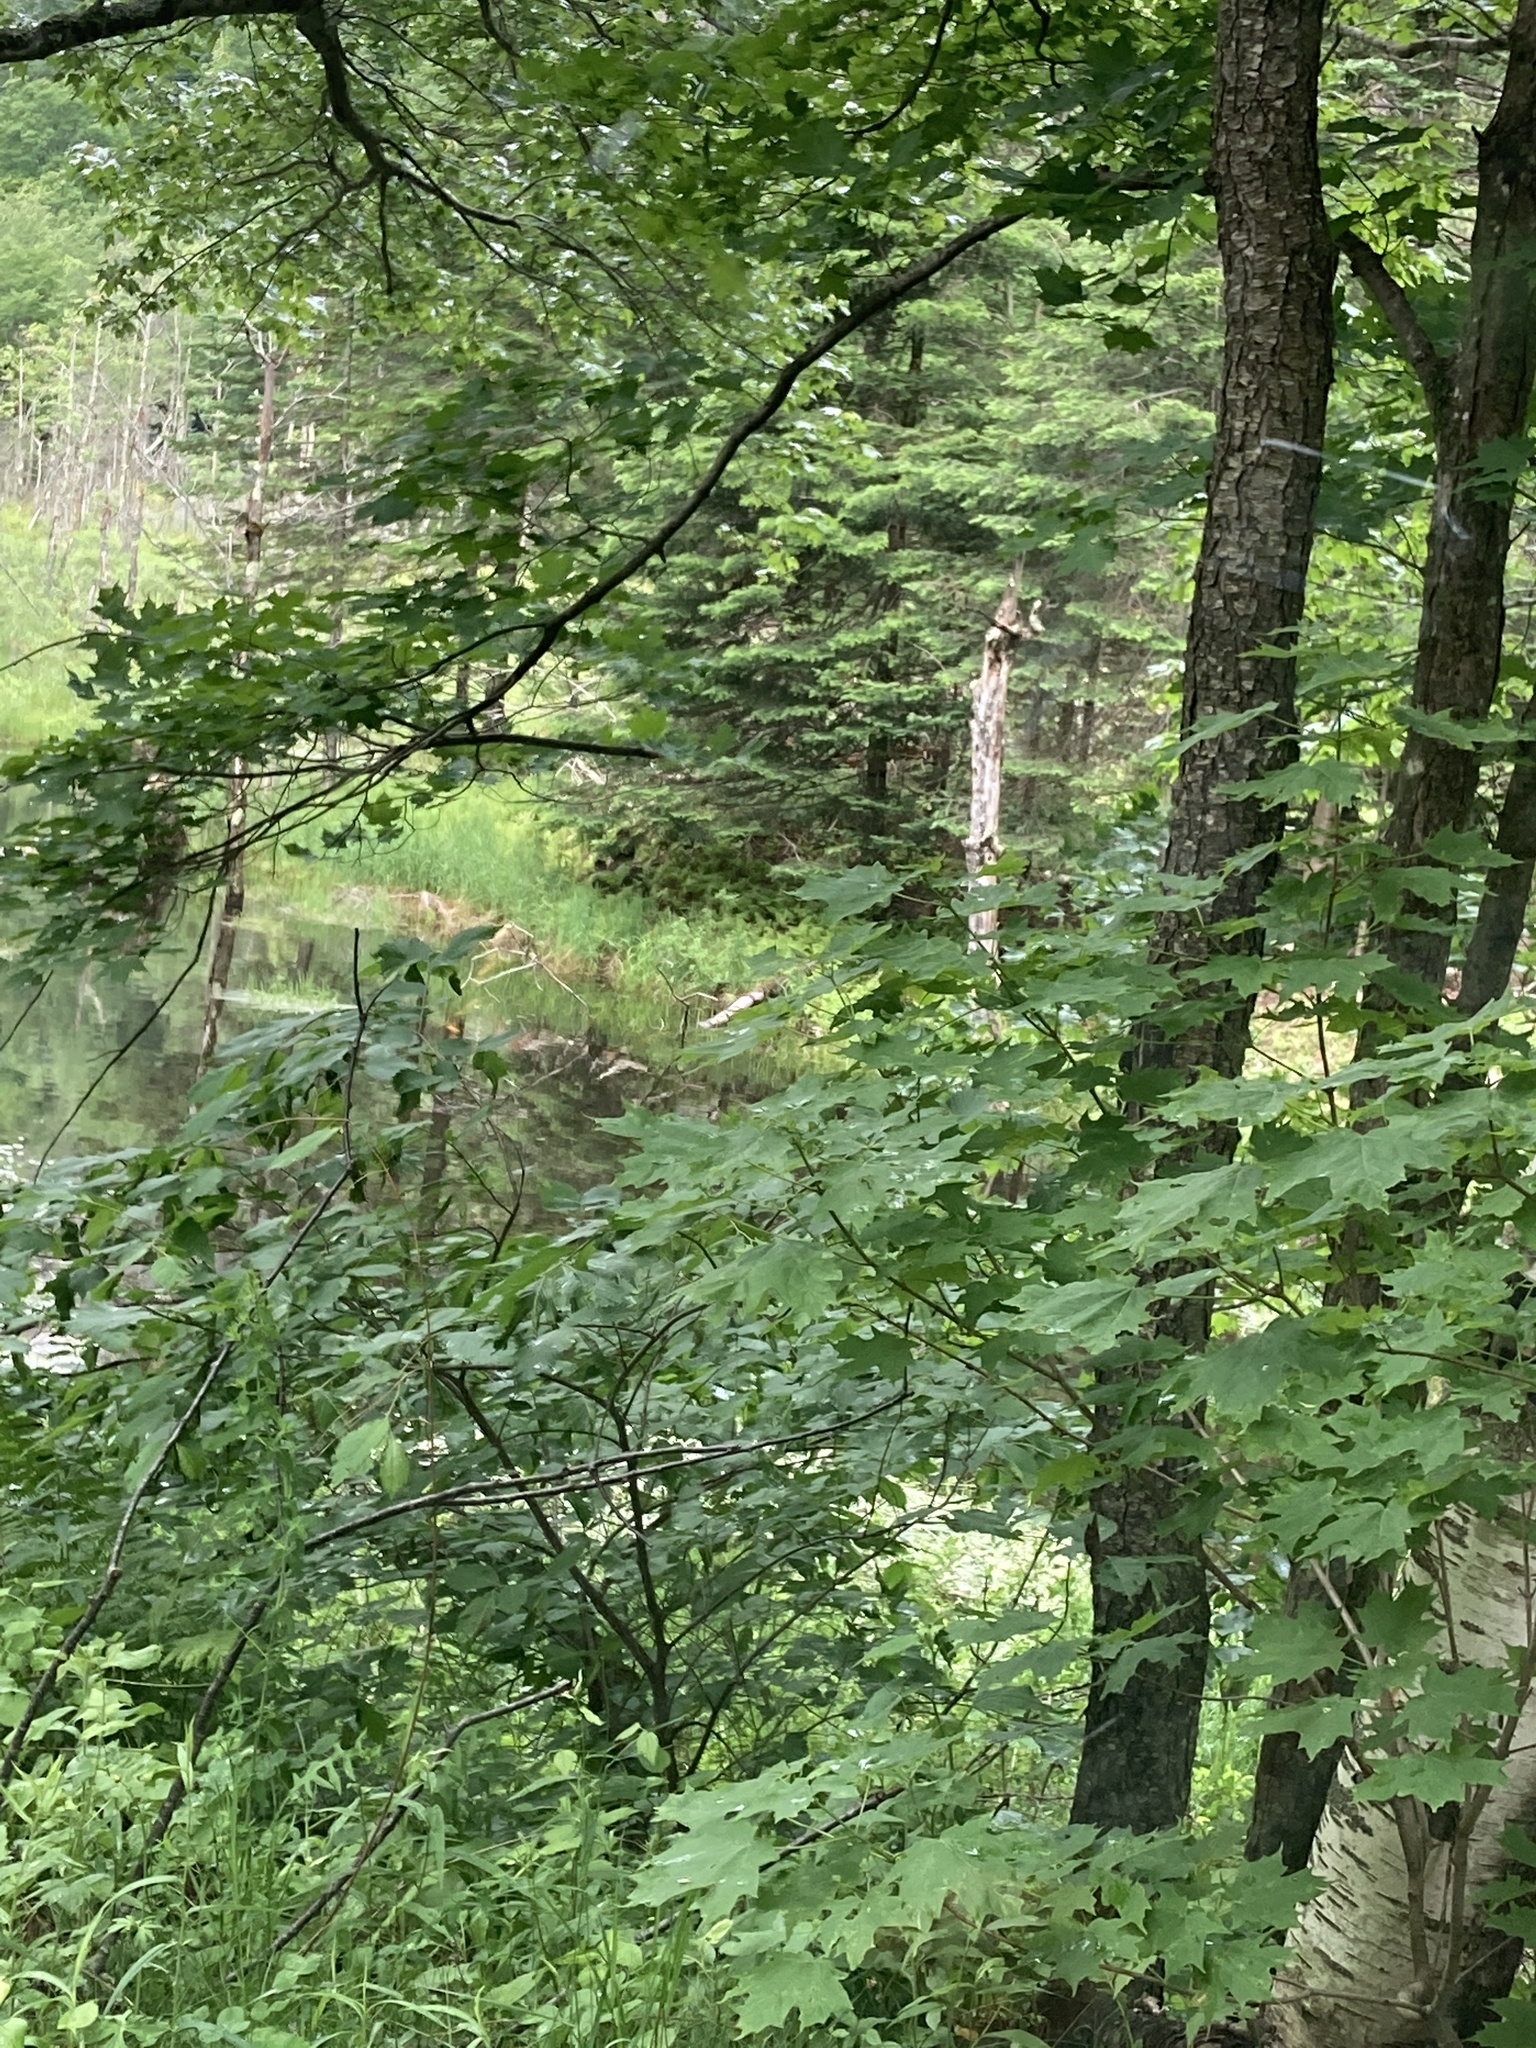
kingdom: Plantae
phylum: Tracheophyta
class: Magnoliopsida
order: Sapindales
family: Sapindaceae
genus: Acer
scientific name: Acer saccharum
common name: Sugar maple
